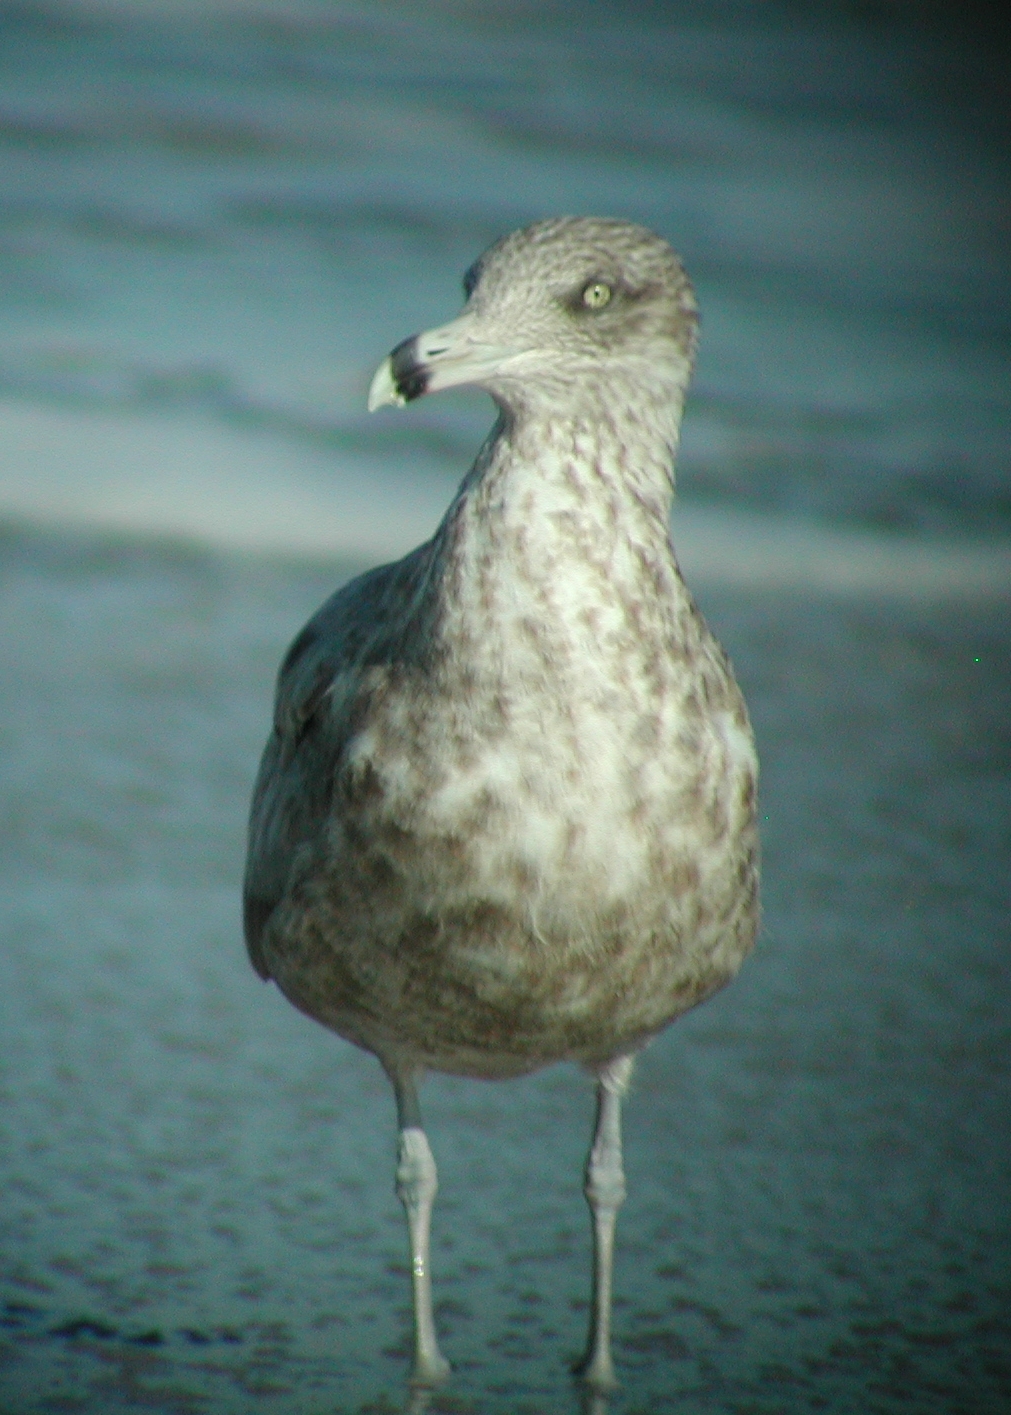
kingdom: Animalia
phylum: Chordata
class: Aves
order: Charadriiformes
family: Laridae
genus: Larus
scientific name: Larus argentatus
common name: Herring gull
